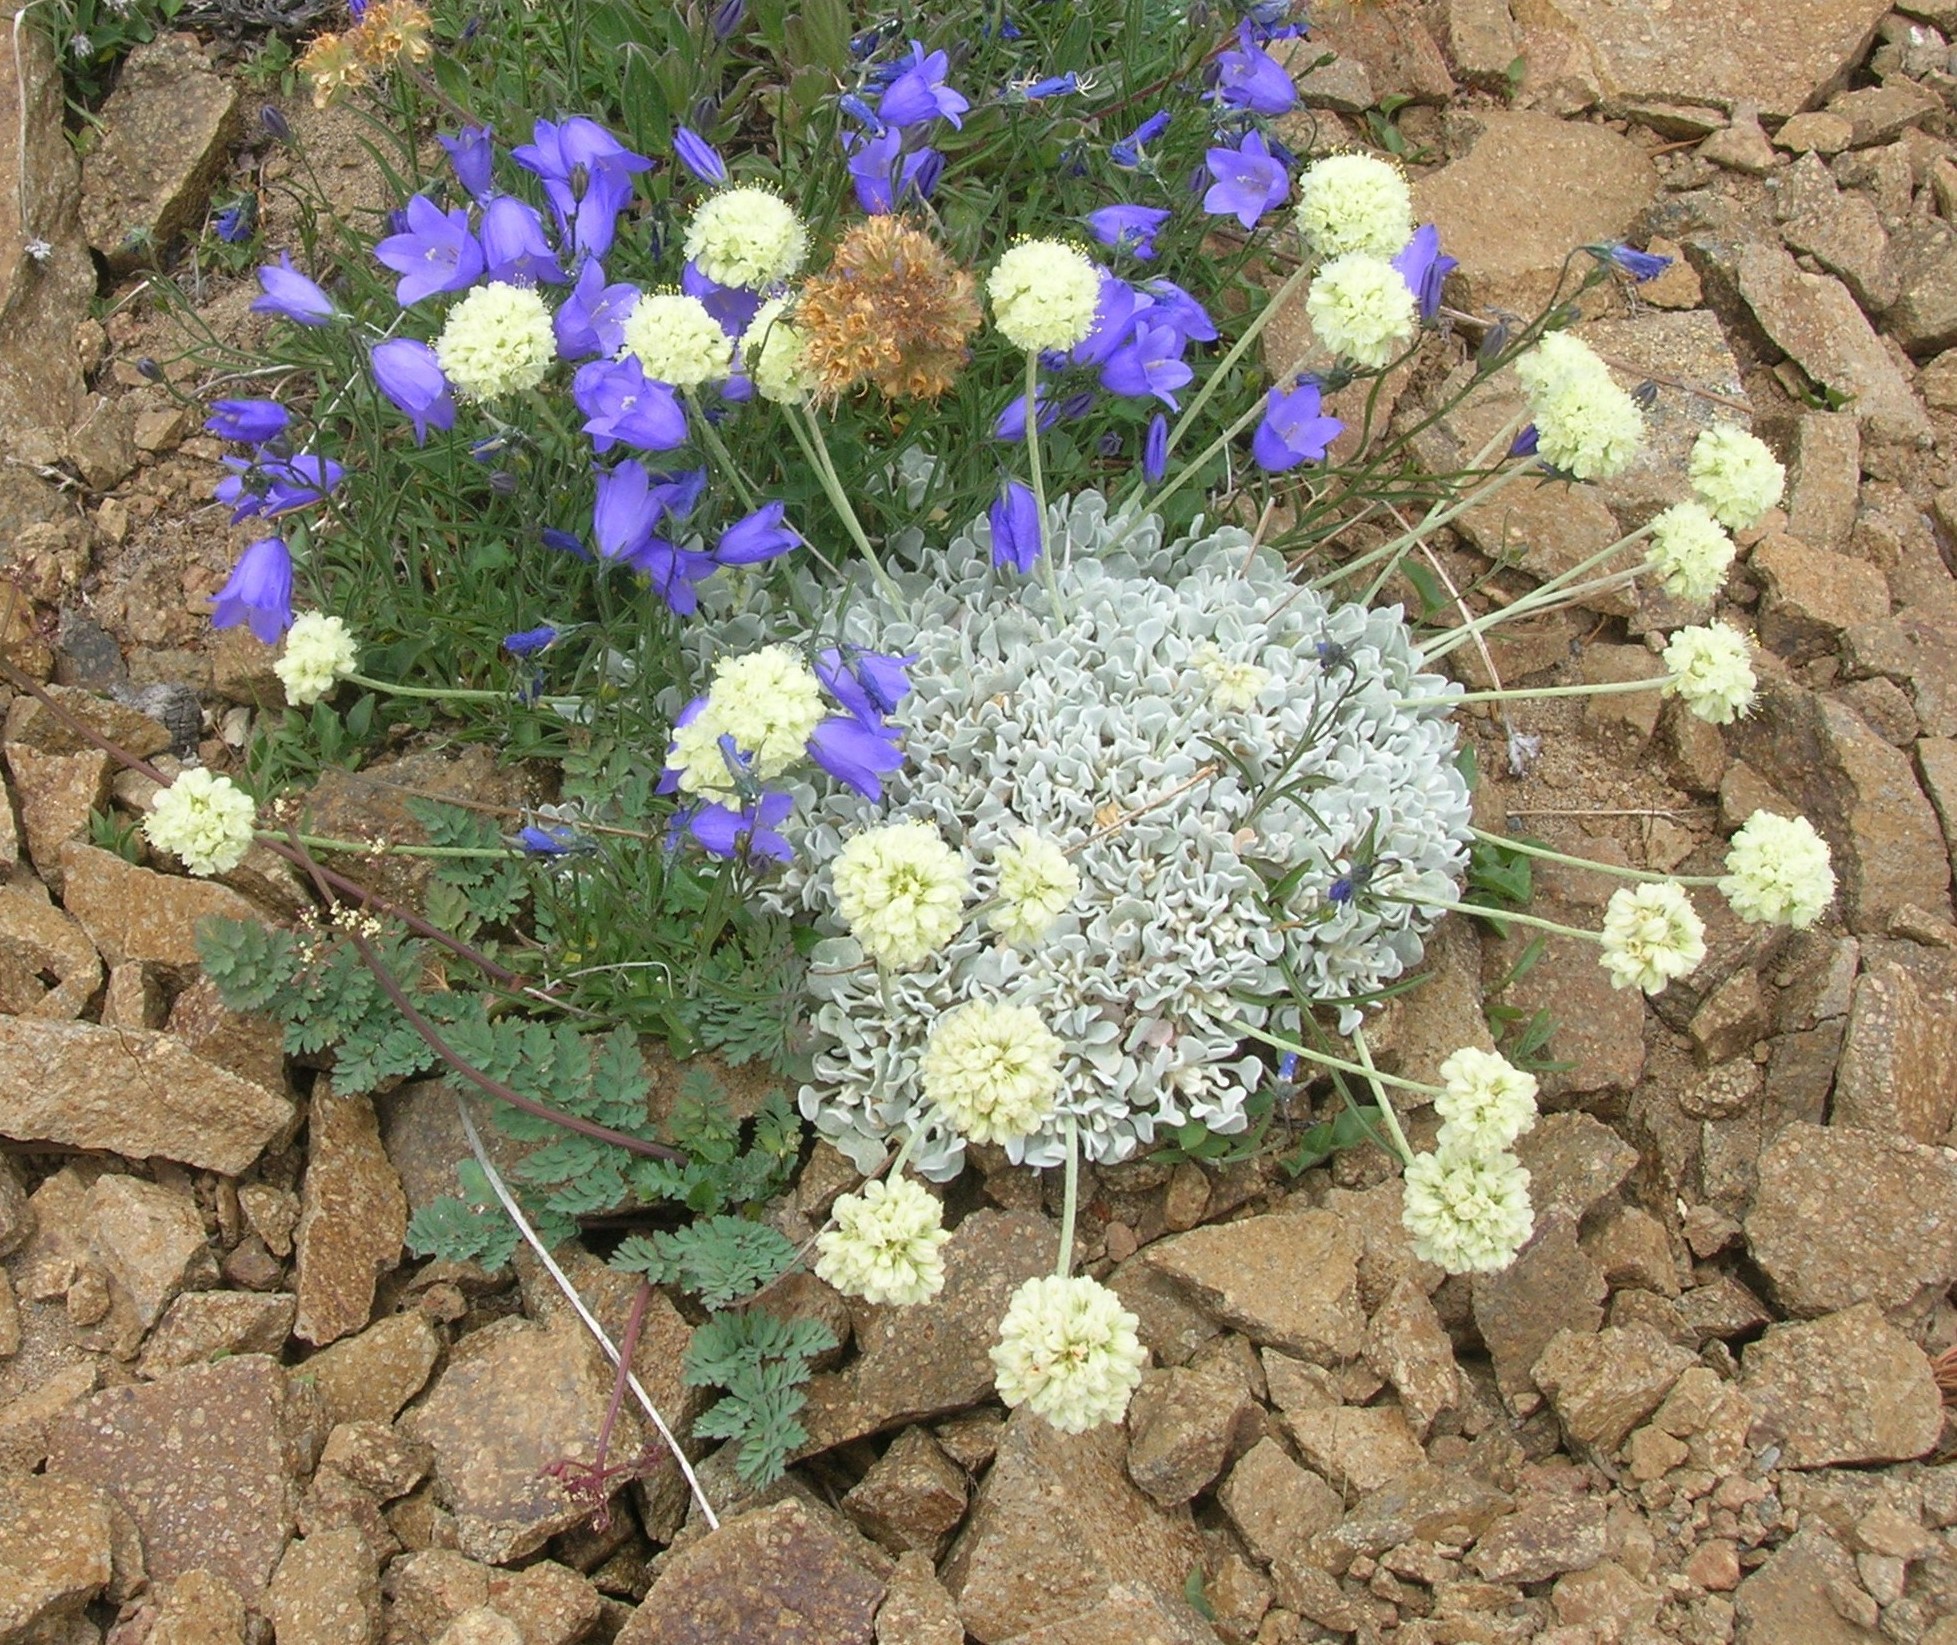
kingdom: Plantae
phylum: Tracheophyta
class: Magnoliopsida
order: Caryophyllales
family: Polygonaceae
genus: Eriogonum
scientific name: Eriogonum ovalifolium
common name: Cushion buckwheat
